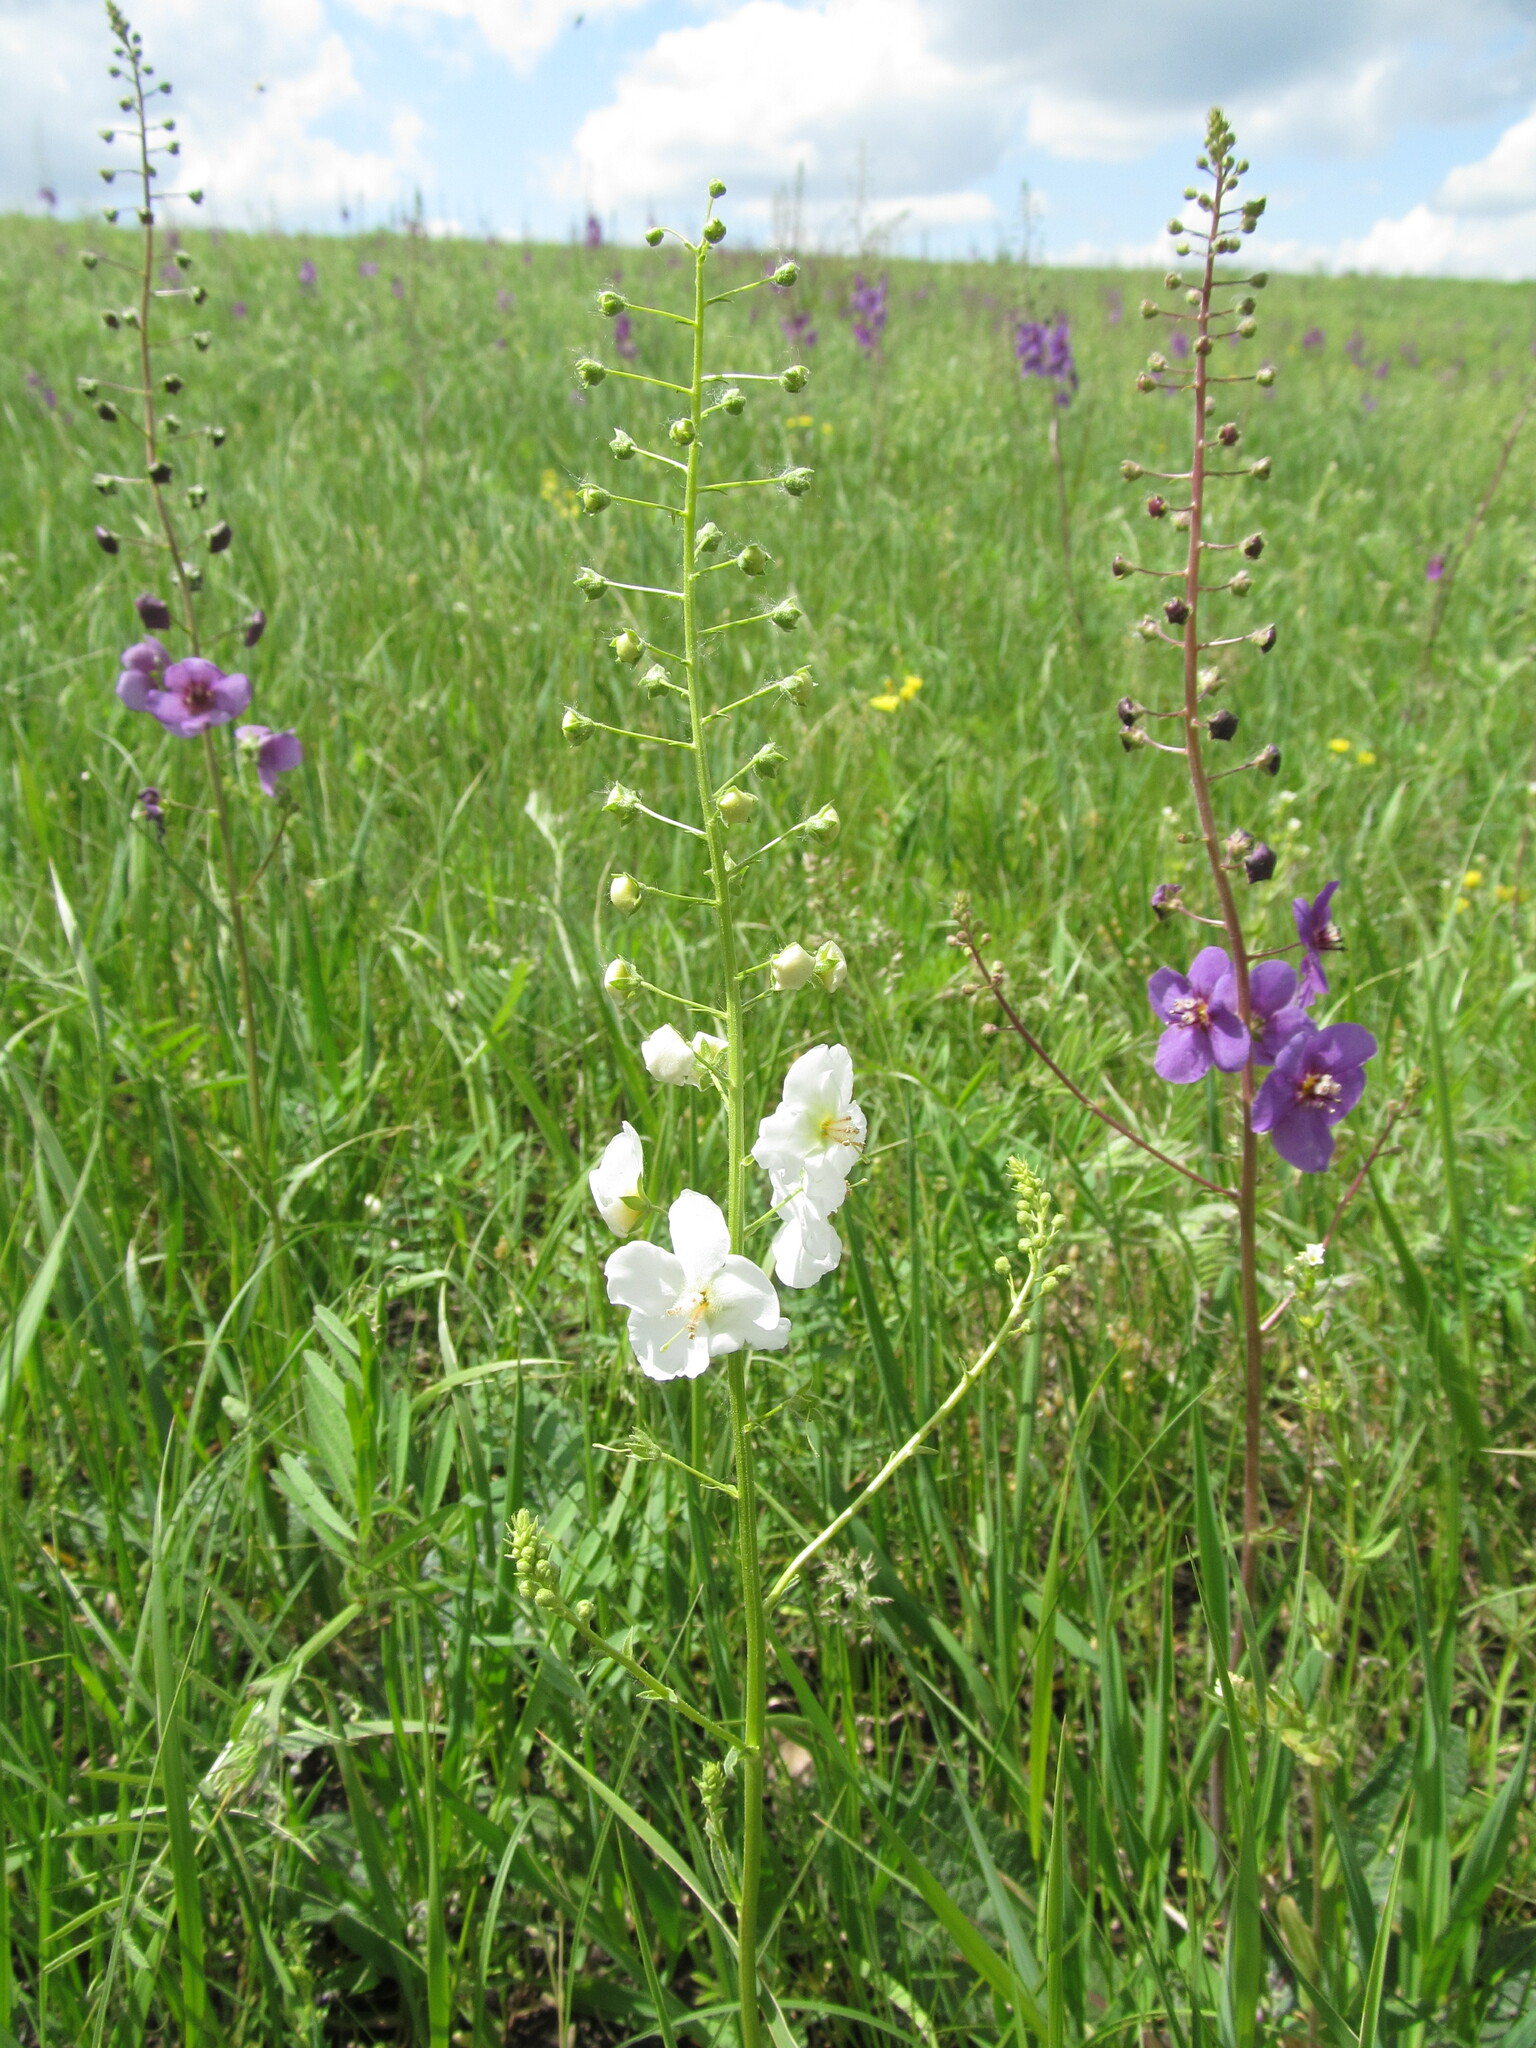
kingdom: Plantae
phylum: Tracheophyta
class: Magnoliopsida
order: Lamiales
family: Scrophulariaceae
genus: Verbascum
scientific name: Verbascum phoeniceum
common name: Purple mullein
